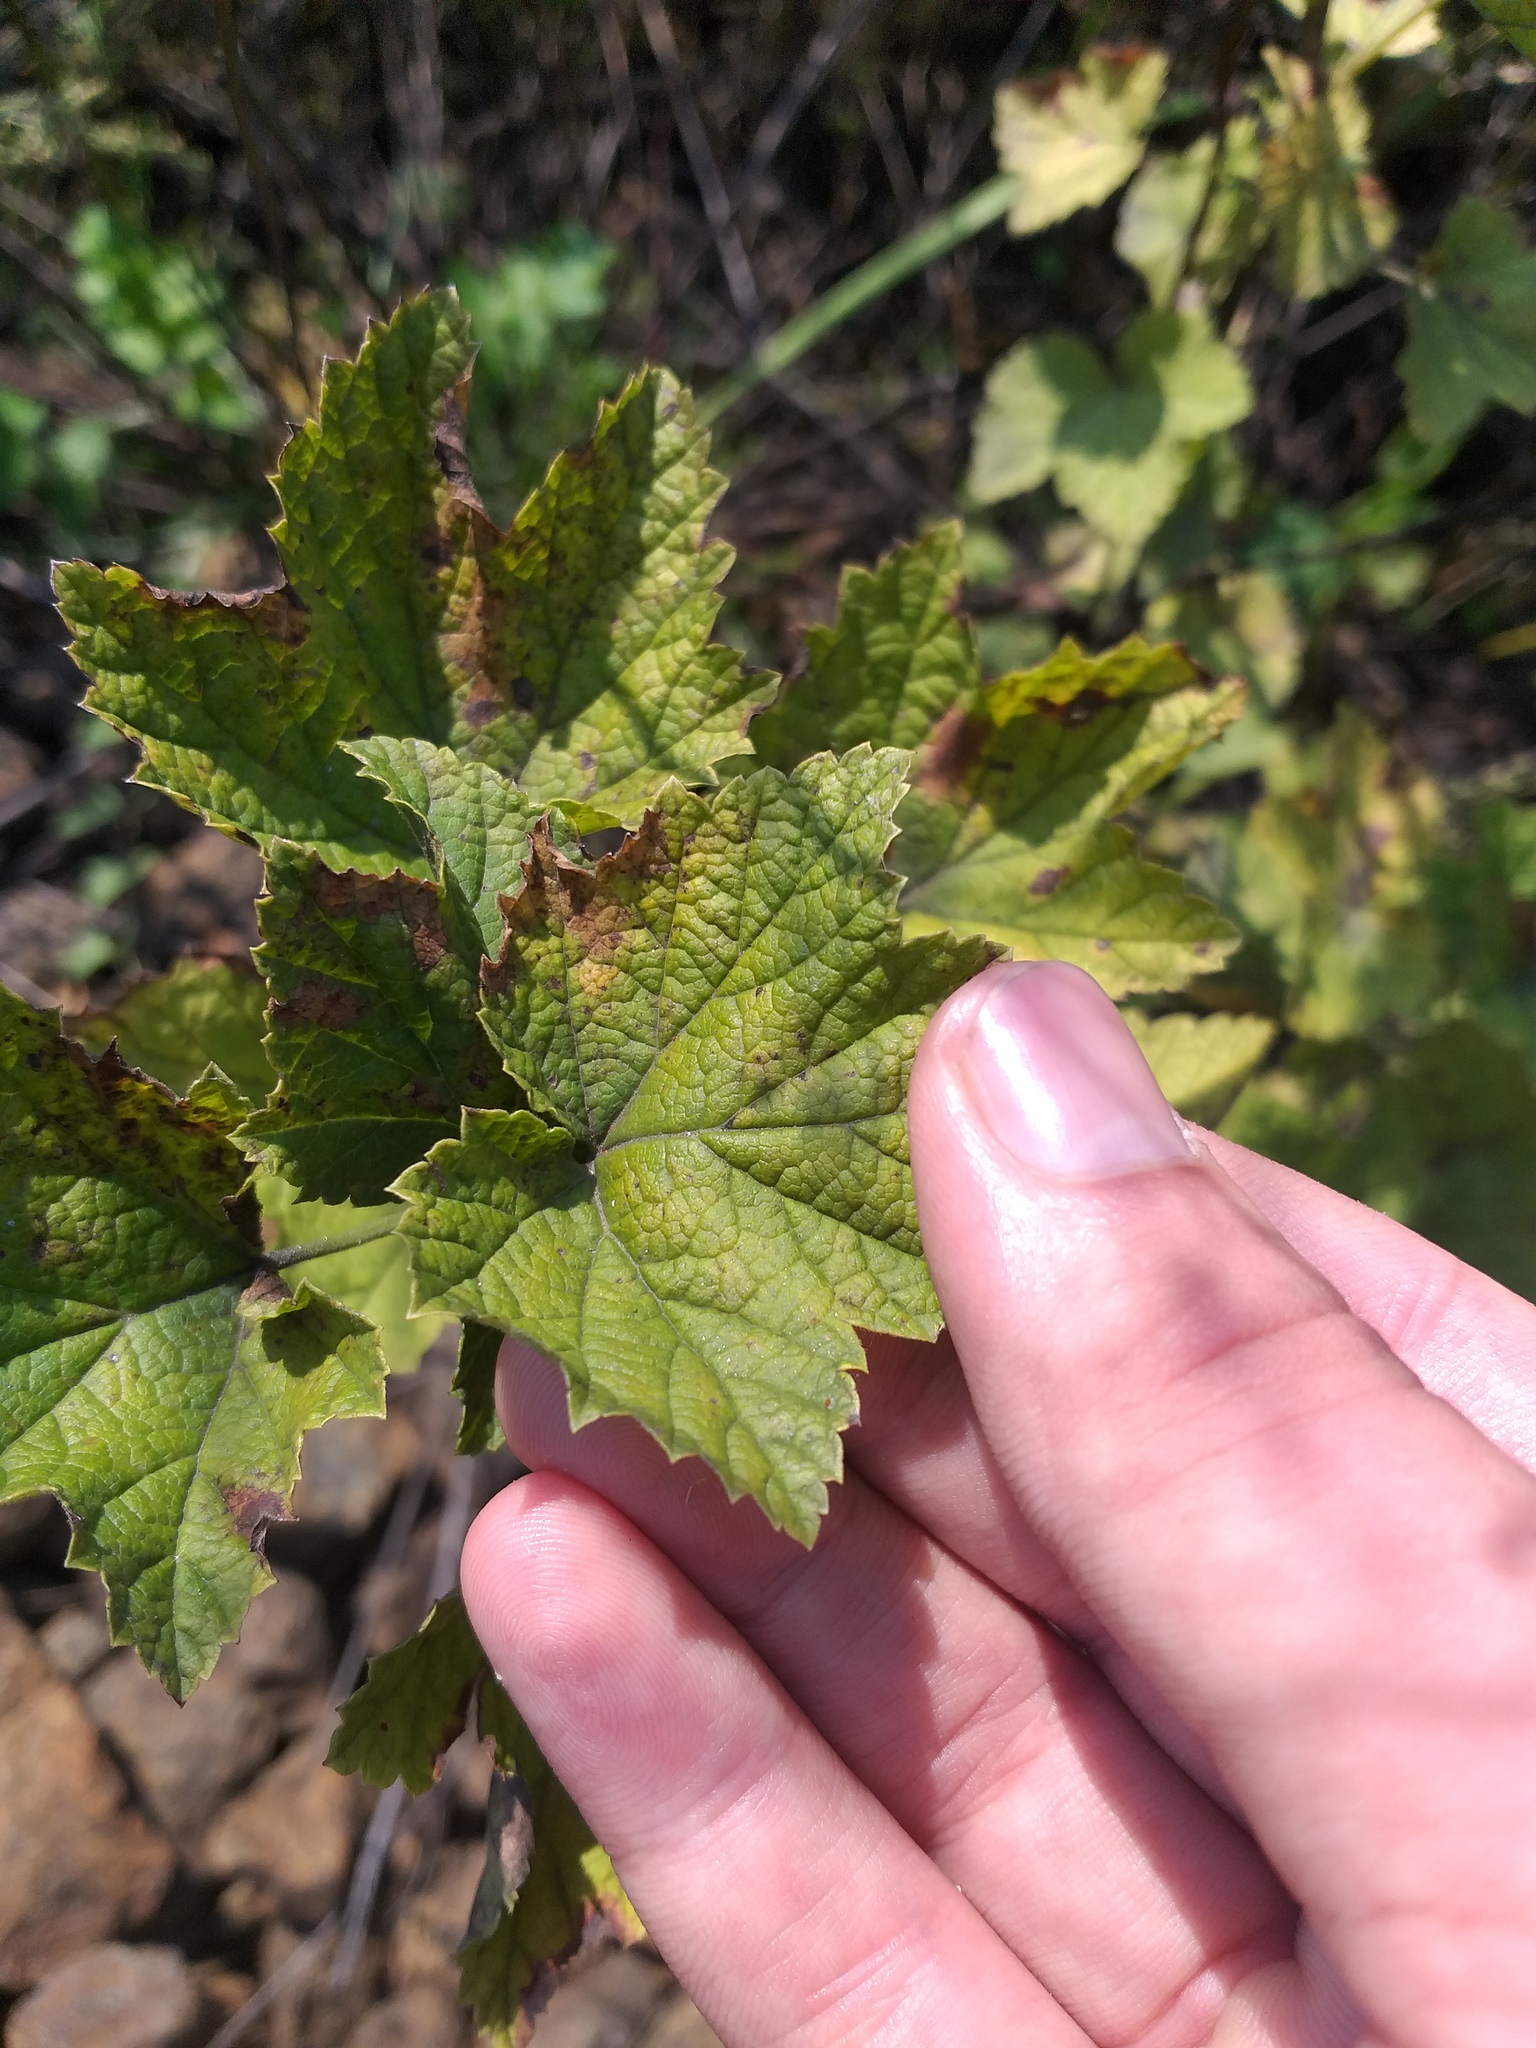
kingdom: Plantae
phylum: Tracheophyta
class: Magnoliopsida
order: Saxifragales
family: Grossulariaceae
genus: Ribes
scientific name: Ribes rubrum
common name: Red currant
